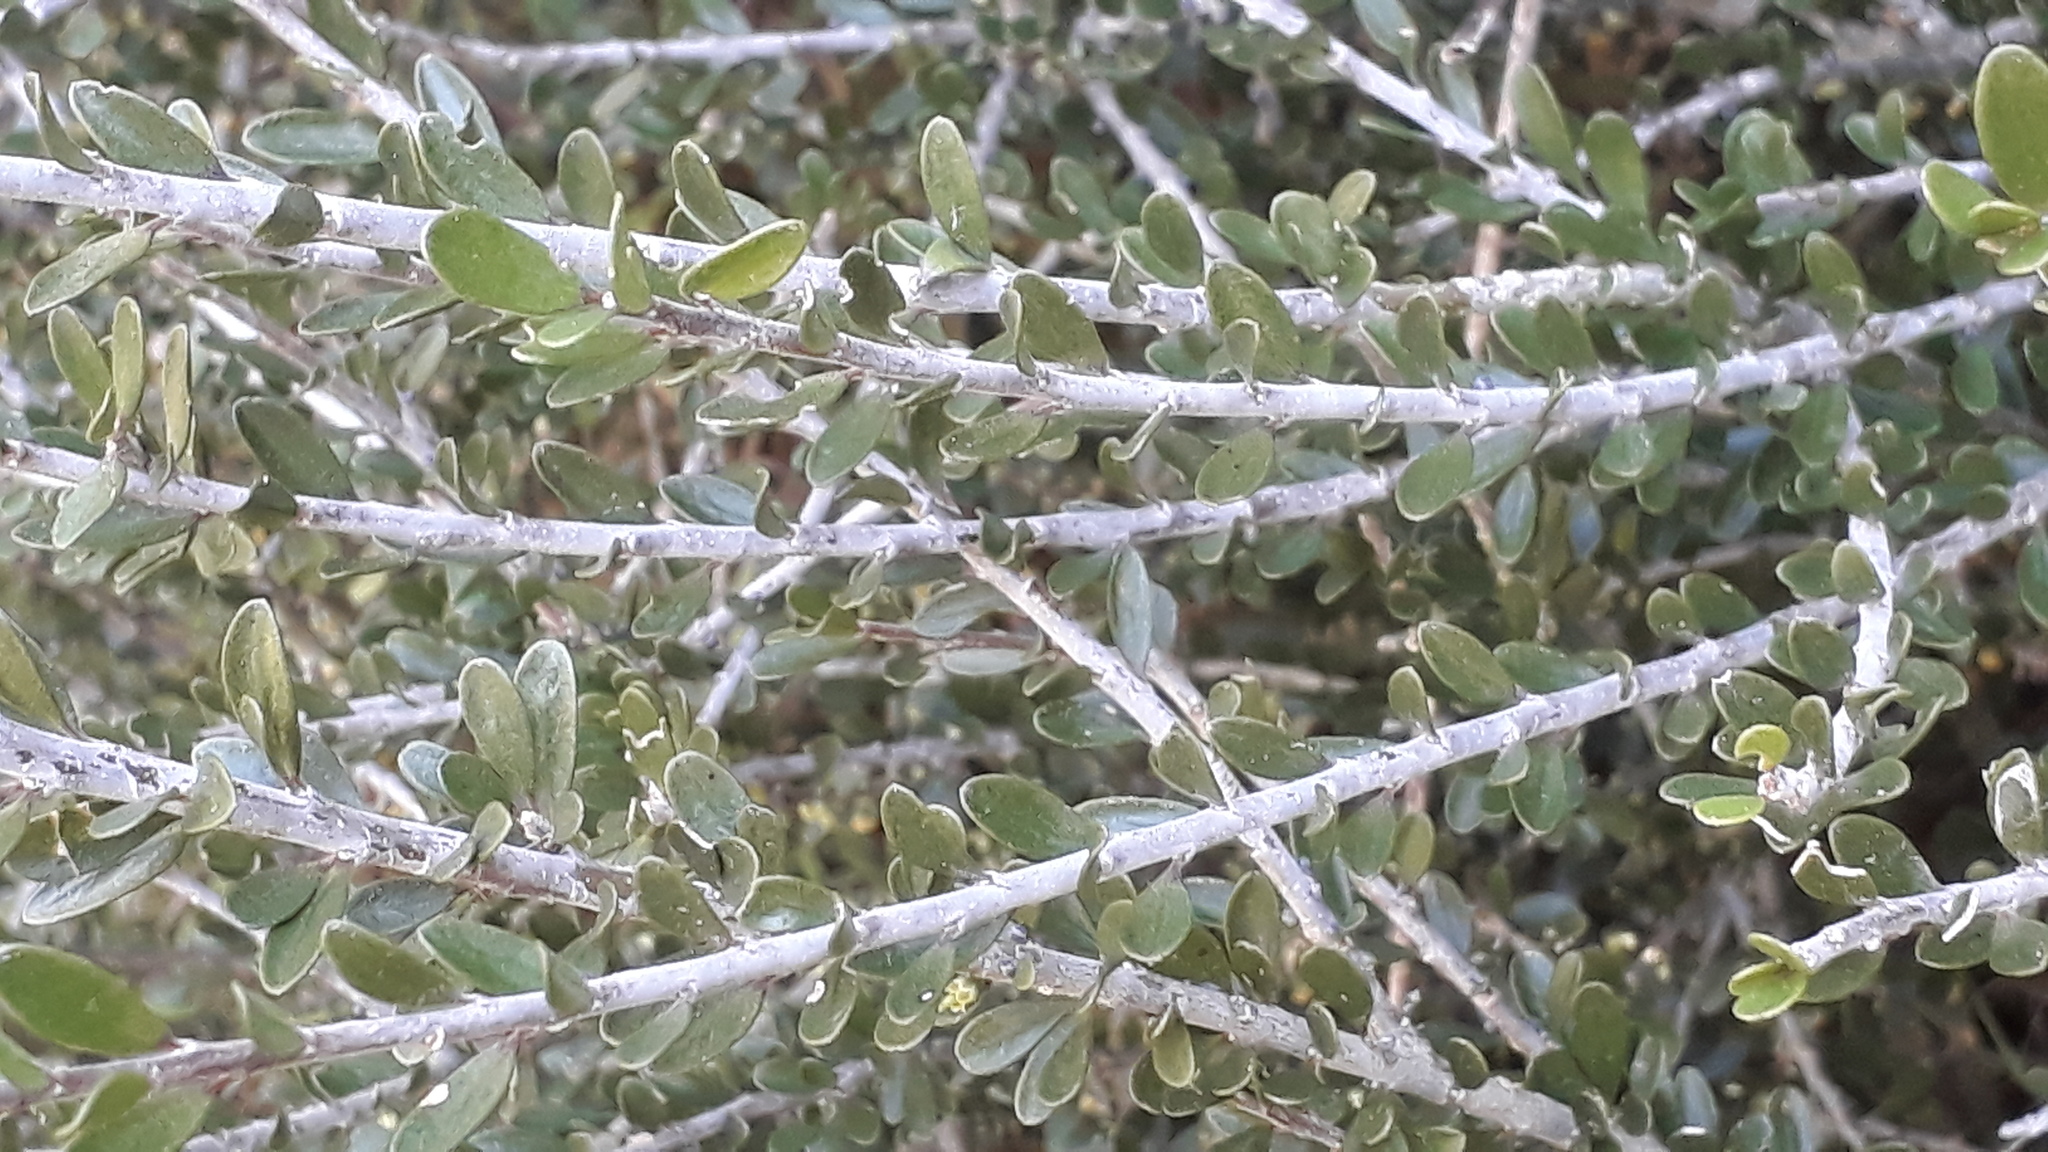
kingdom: Plantae
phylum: Tracheophyta
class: Magnoliopsida
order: Malpighiales
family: Violaceae
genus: Melicytus
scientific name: Melicytus crassifolius
